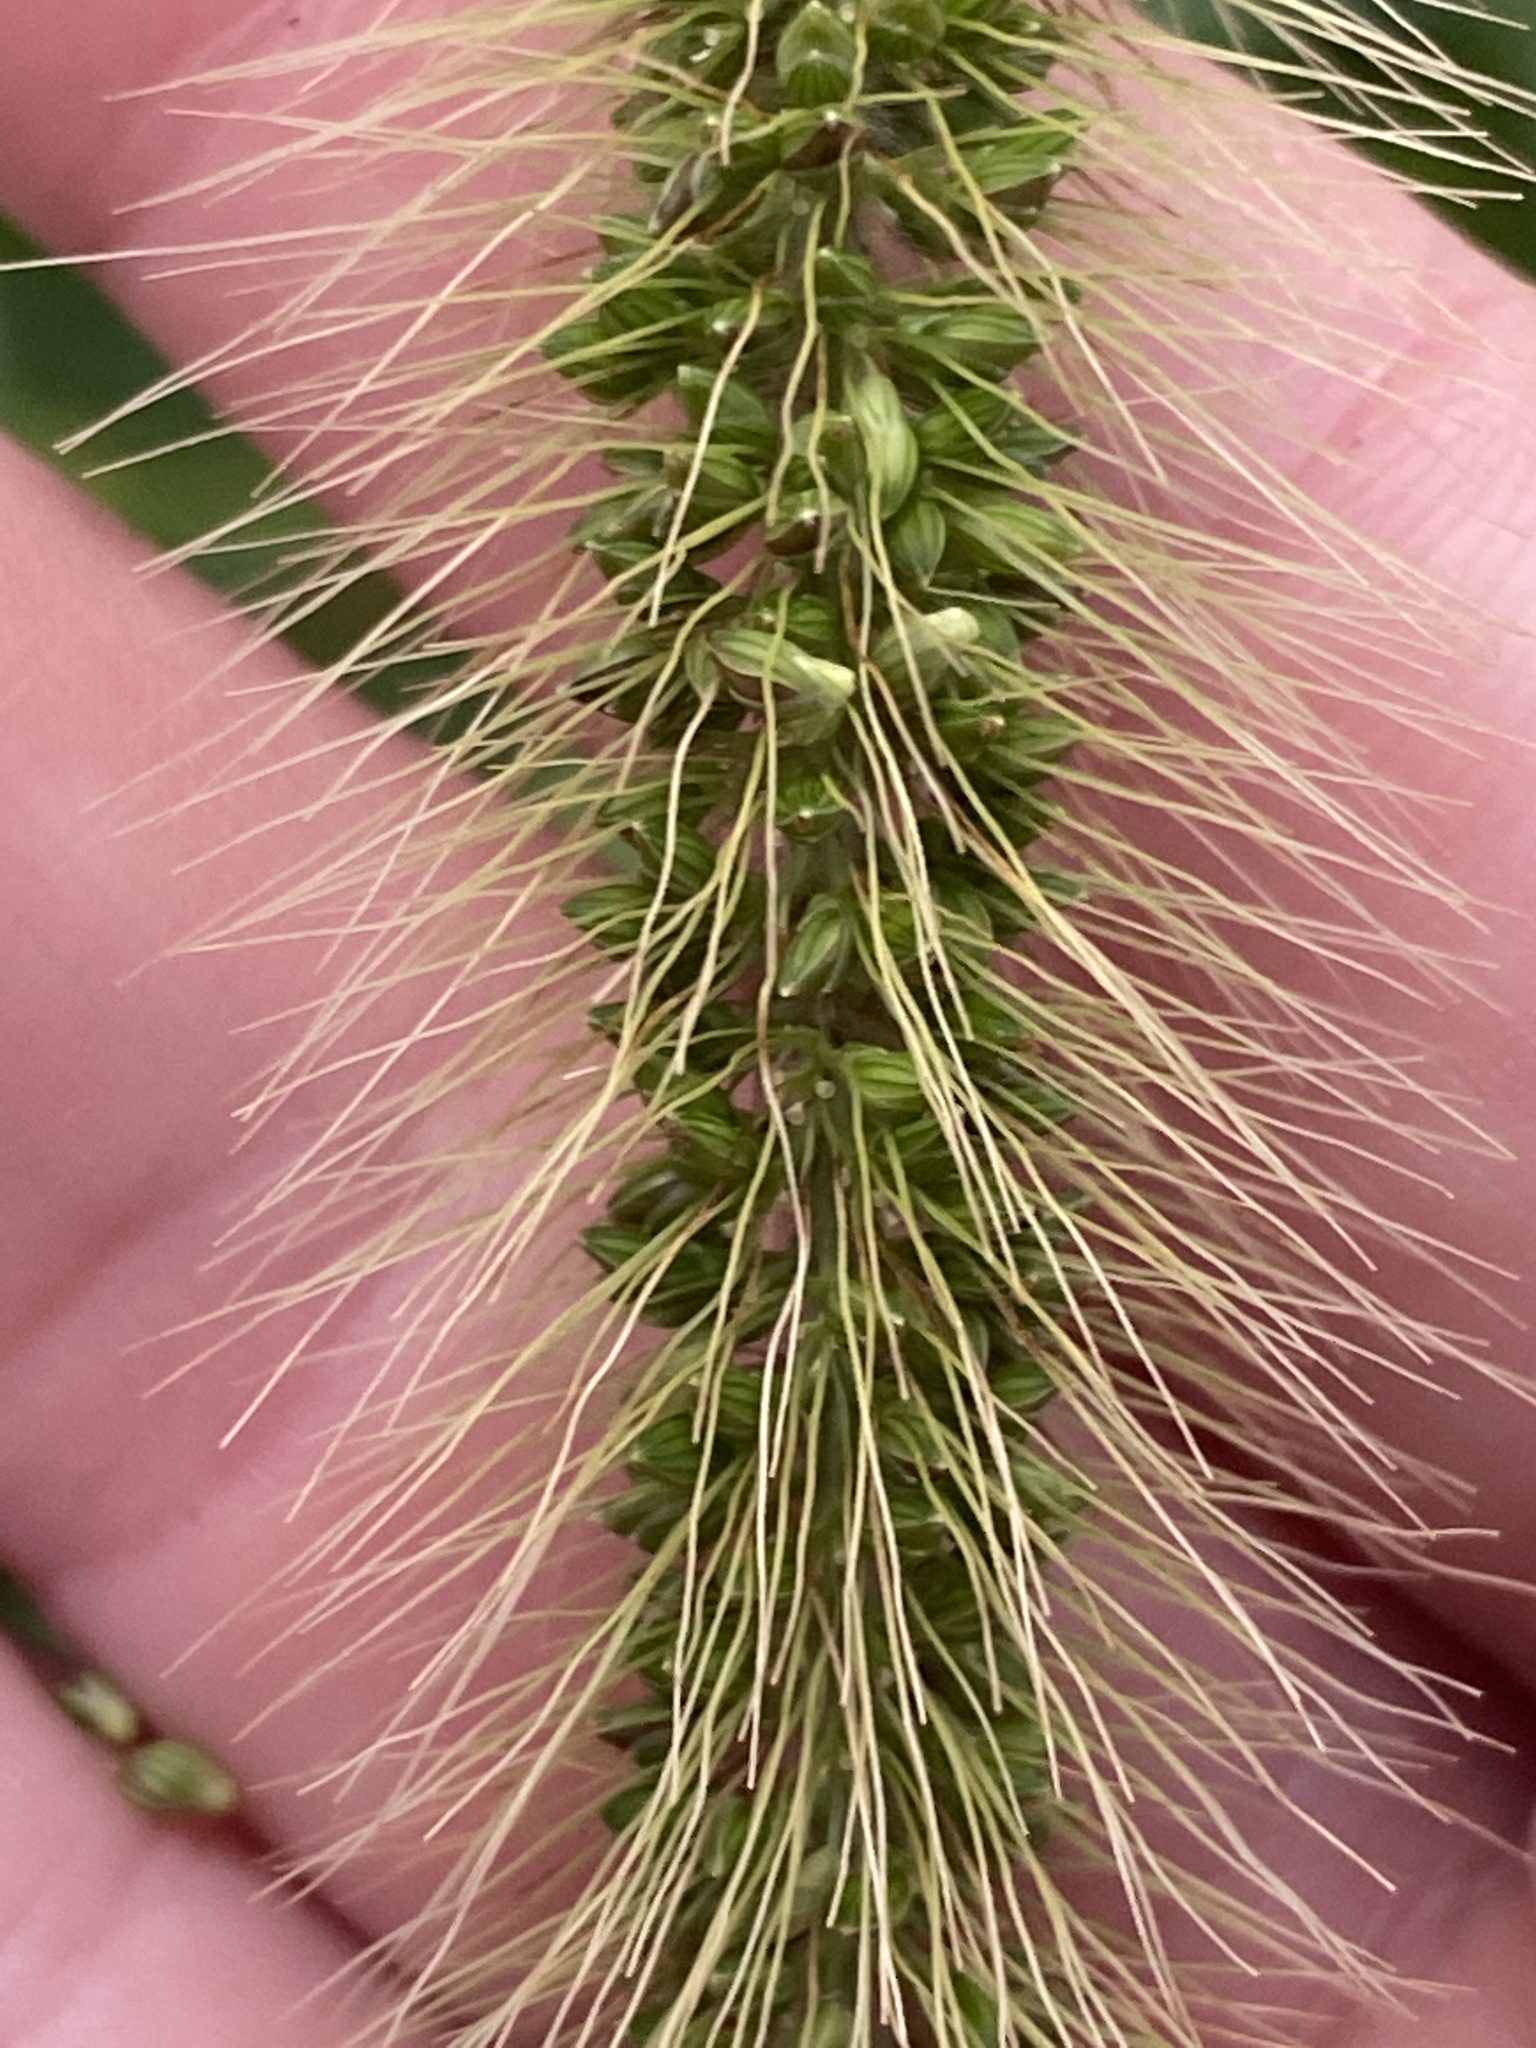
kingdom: Plantae
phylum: Tracheophyta
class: Liliopsida
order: Poales
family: Poaceae
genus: Setaria
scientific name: Setaria faberi
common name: Nodding bristle-grass
